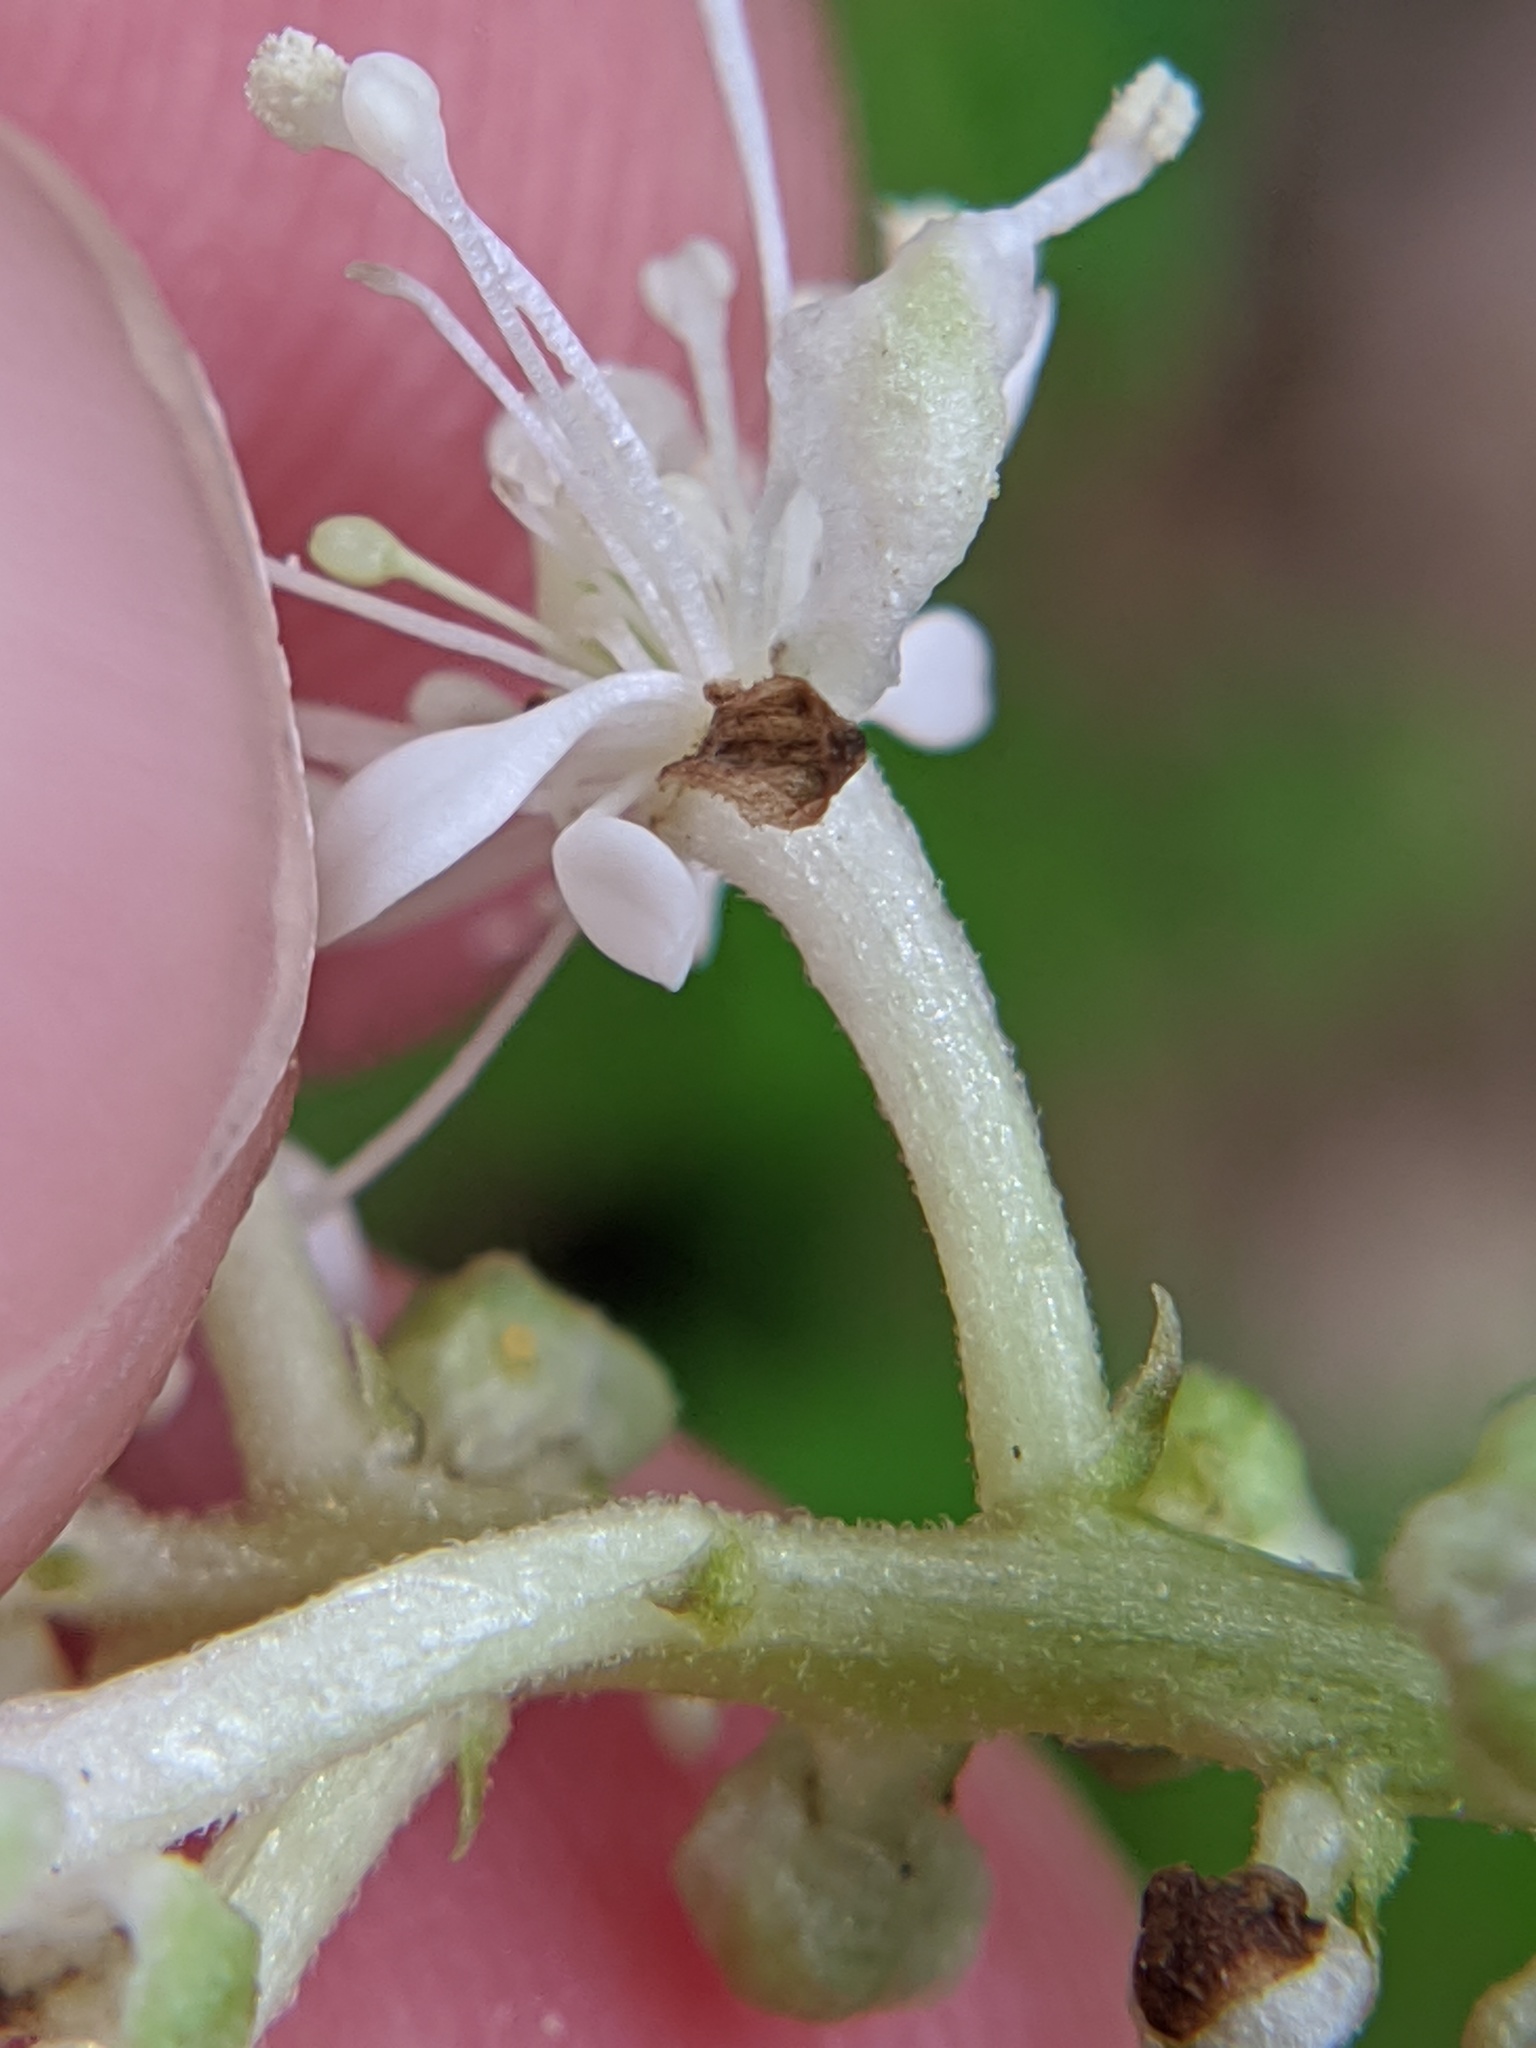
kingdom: Plantae
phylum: Tracheophyta
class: Magnoliopsida
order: Ranunculales
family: Ranunculaceae
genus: Actaea
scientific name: Actaea pachypoda
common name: Doll's-eyes
